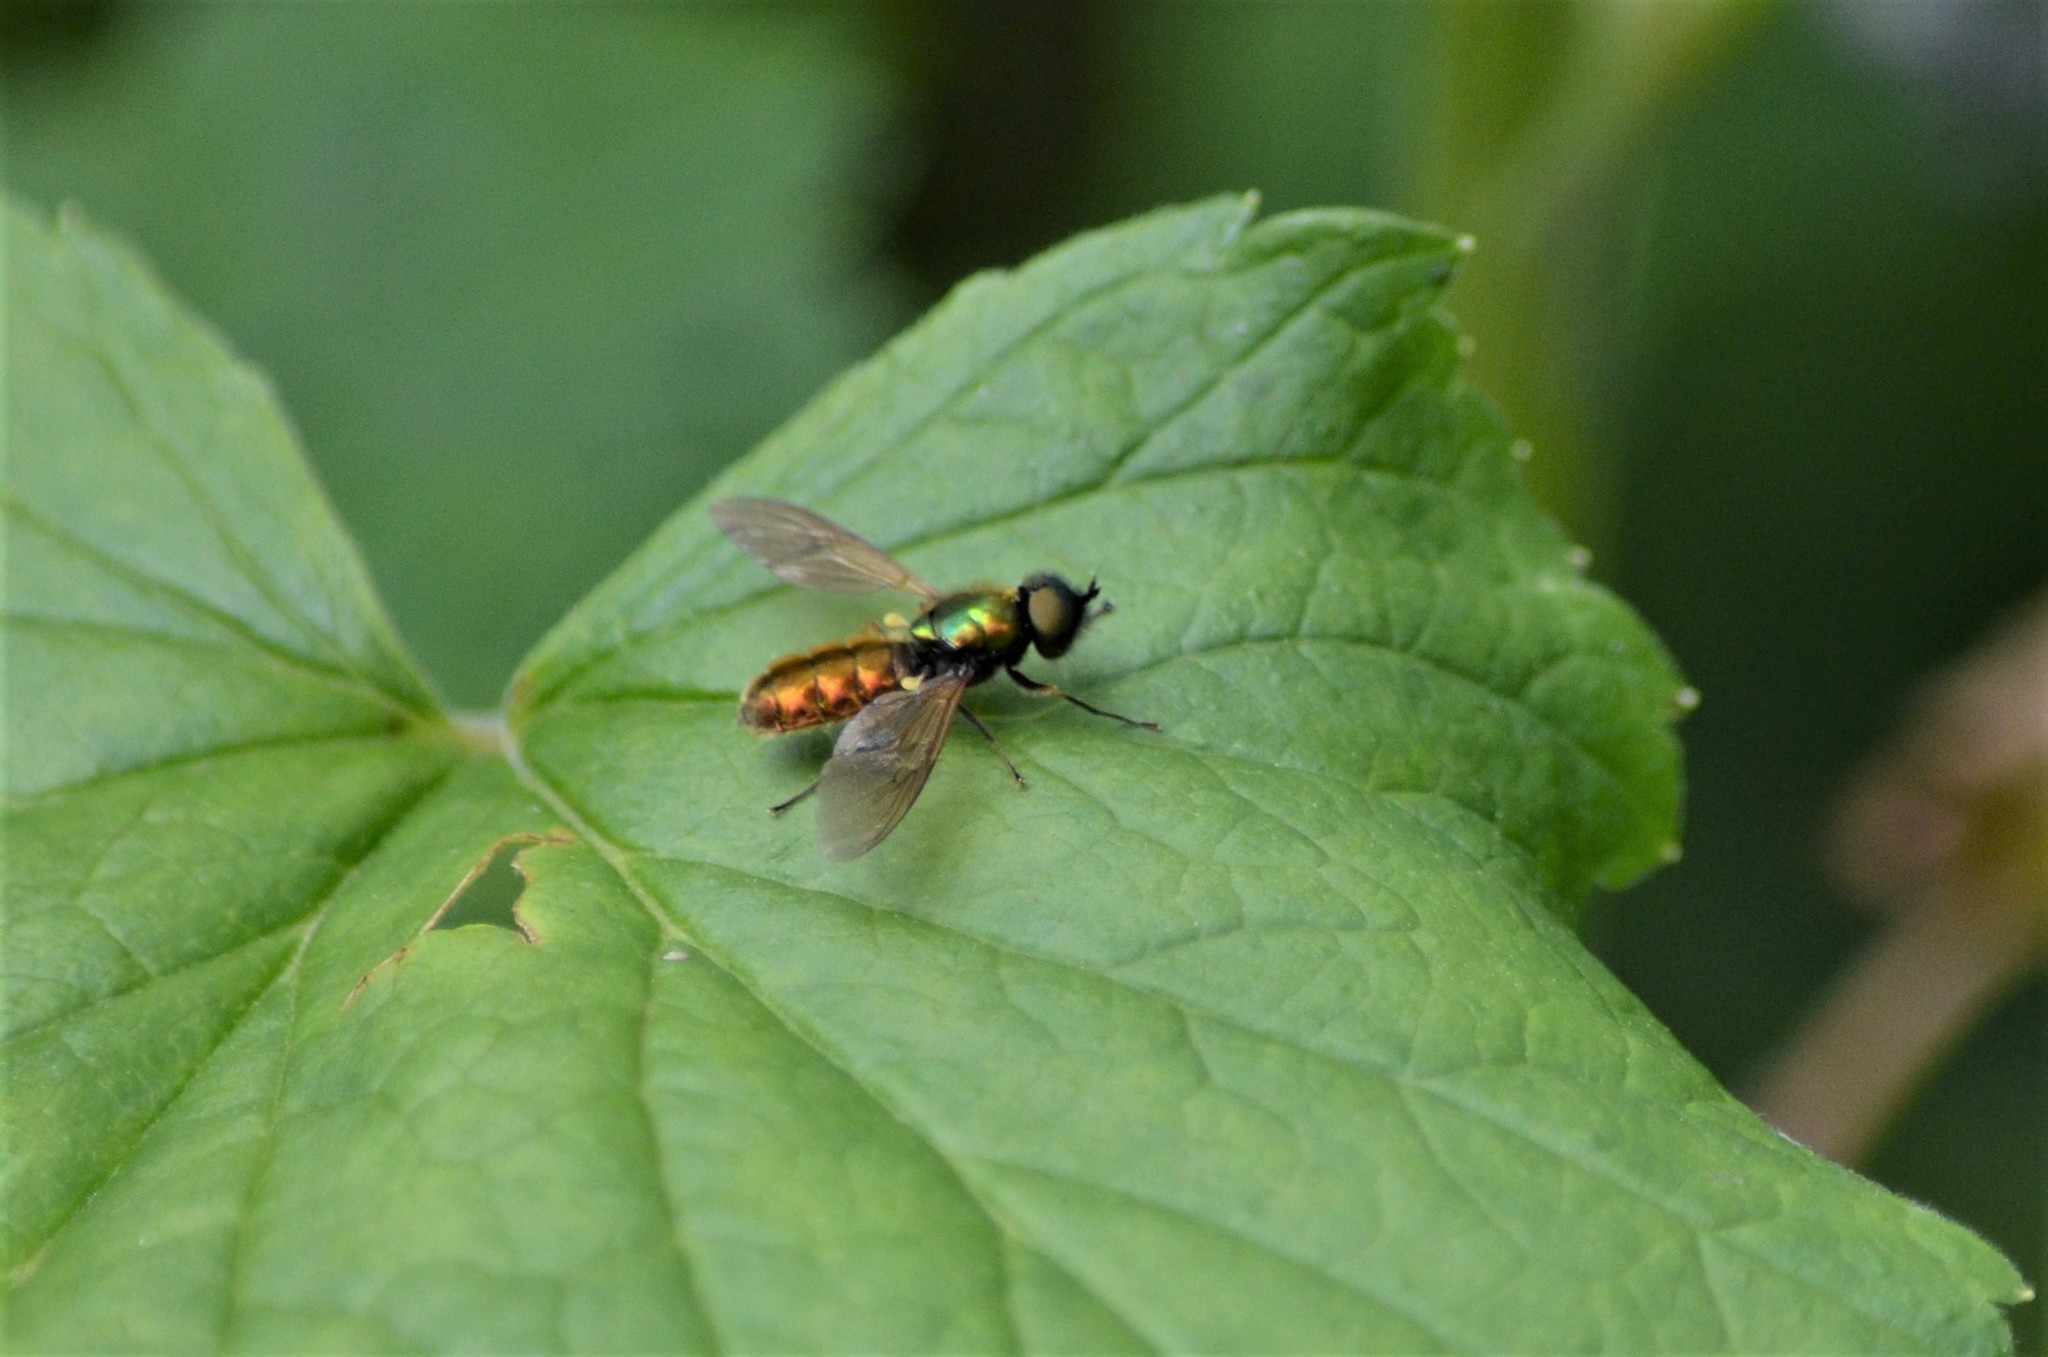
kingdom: Animalia
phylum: Arthropoda
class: Insecta
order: Diptera
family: Stratiomyidae
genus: Chloromyia
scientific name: Chloromyia formosa
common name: Soldier fly
